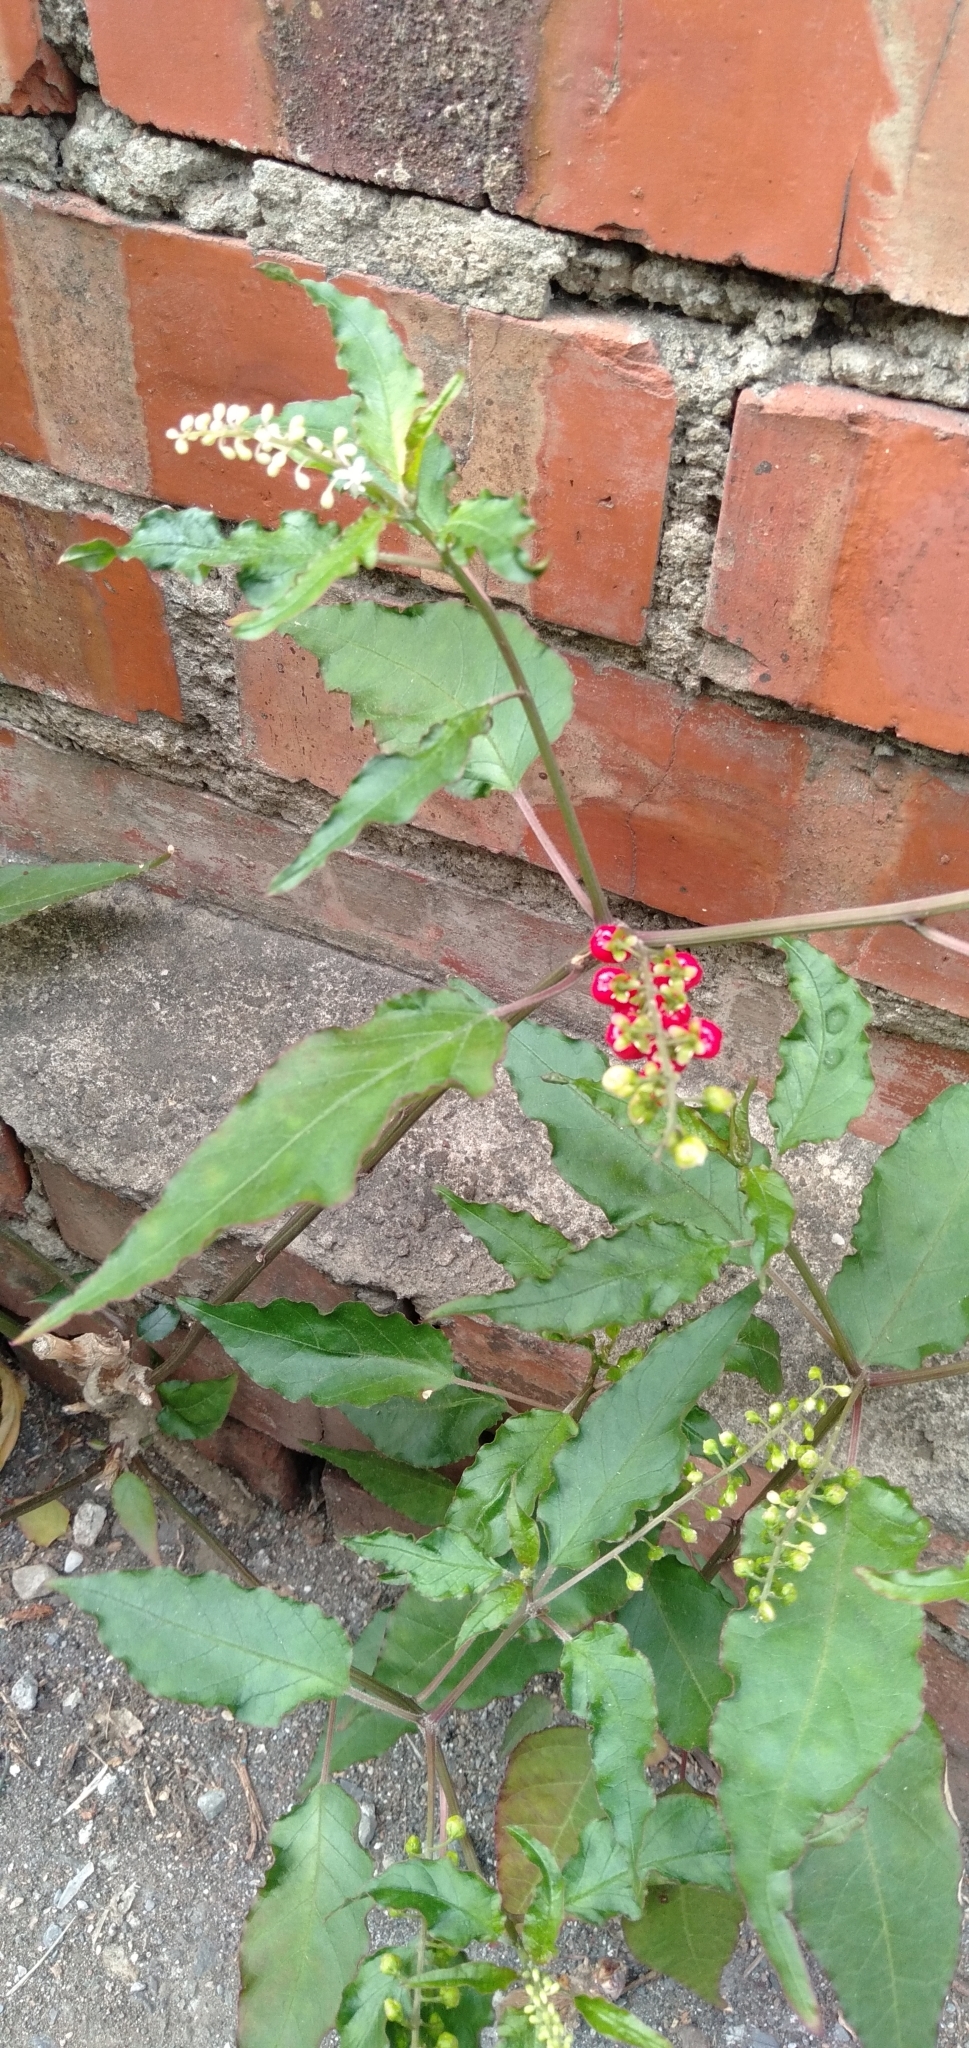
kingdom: Plantae
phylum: Tracheophyta
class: Magnoliopsida
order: Caryophyllales
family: Phytolaccaceae
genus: Rivina
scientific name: Rivina humilis
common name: Rougeplant
